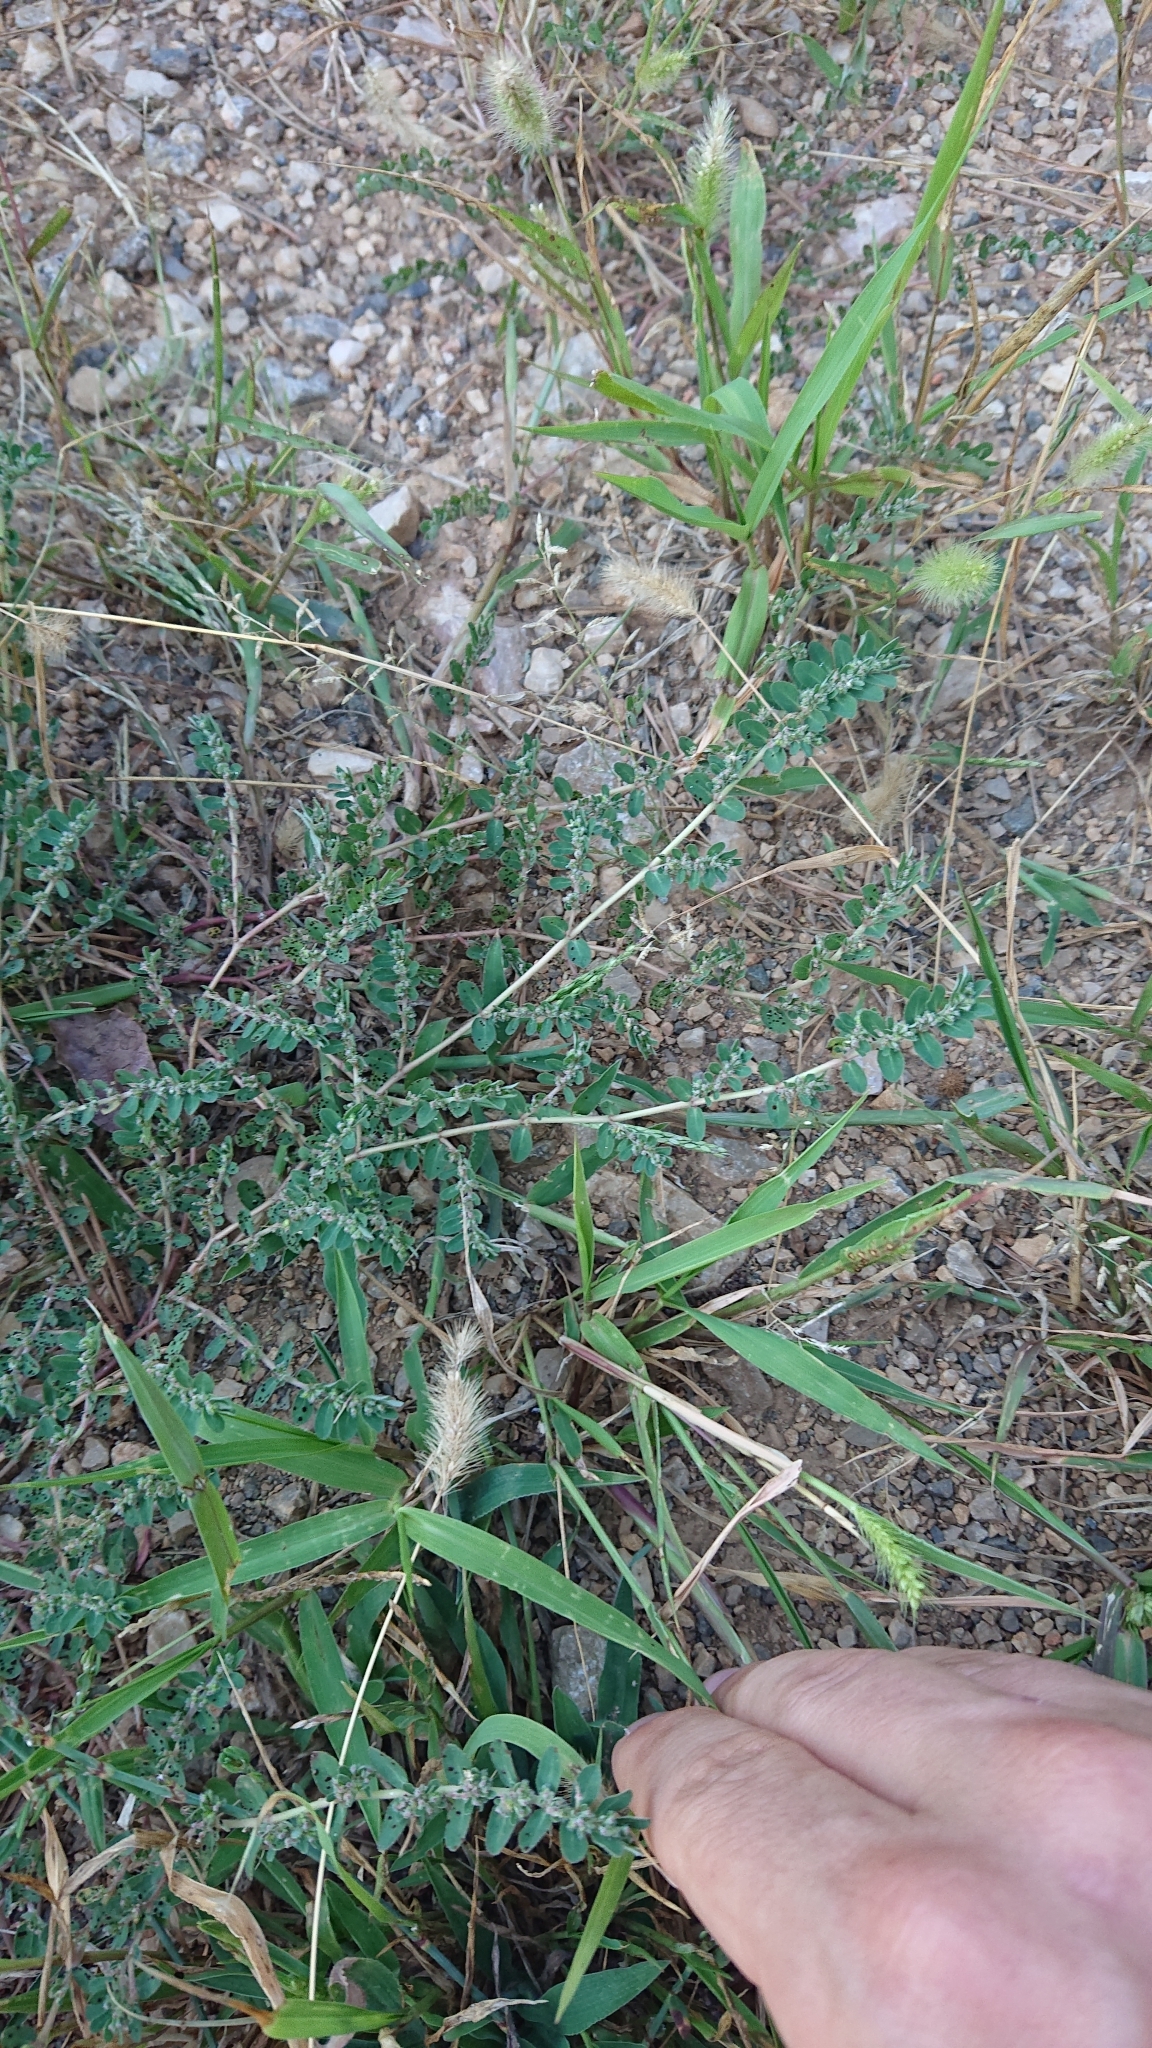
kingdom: Plantae
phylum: Tracheophyta
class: Magnoliopsida
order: Malpighiales
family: Euphorbiaceae
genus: Euphorbia
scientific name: Euphorbia prostrata
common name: Prostrate sandmat
